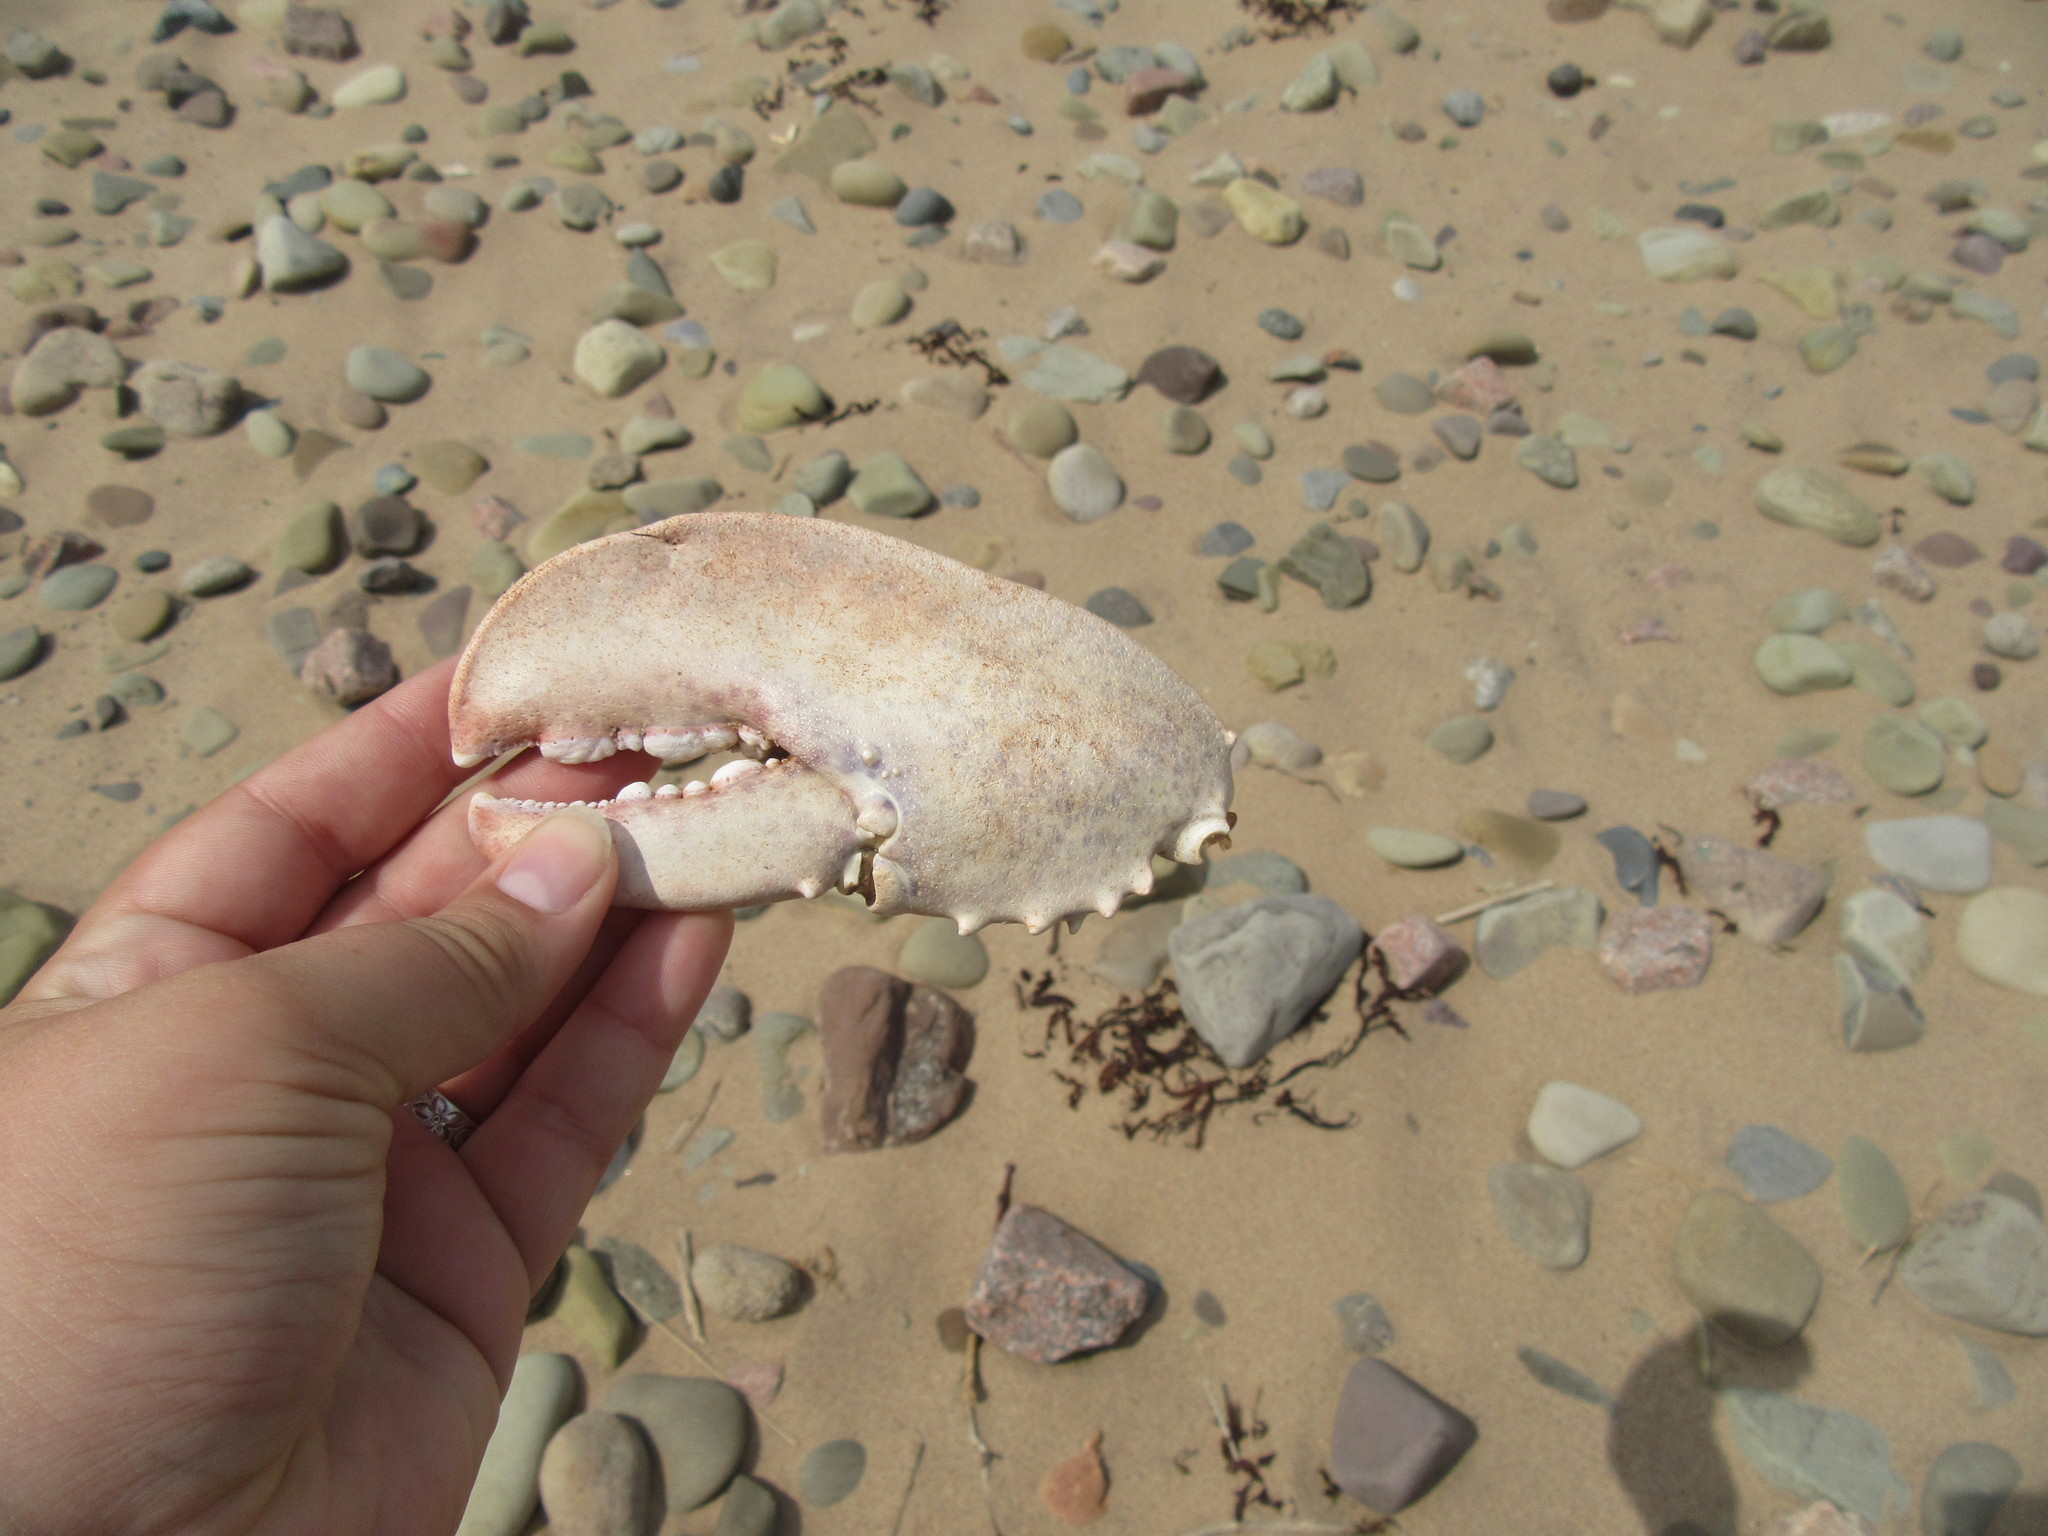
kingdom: Animalia
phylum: Arthropoda
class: Malacostraca
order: Decapoda
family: Nephropidae
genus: Homarus
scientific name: Homarus americanus
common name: American lobster
